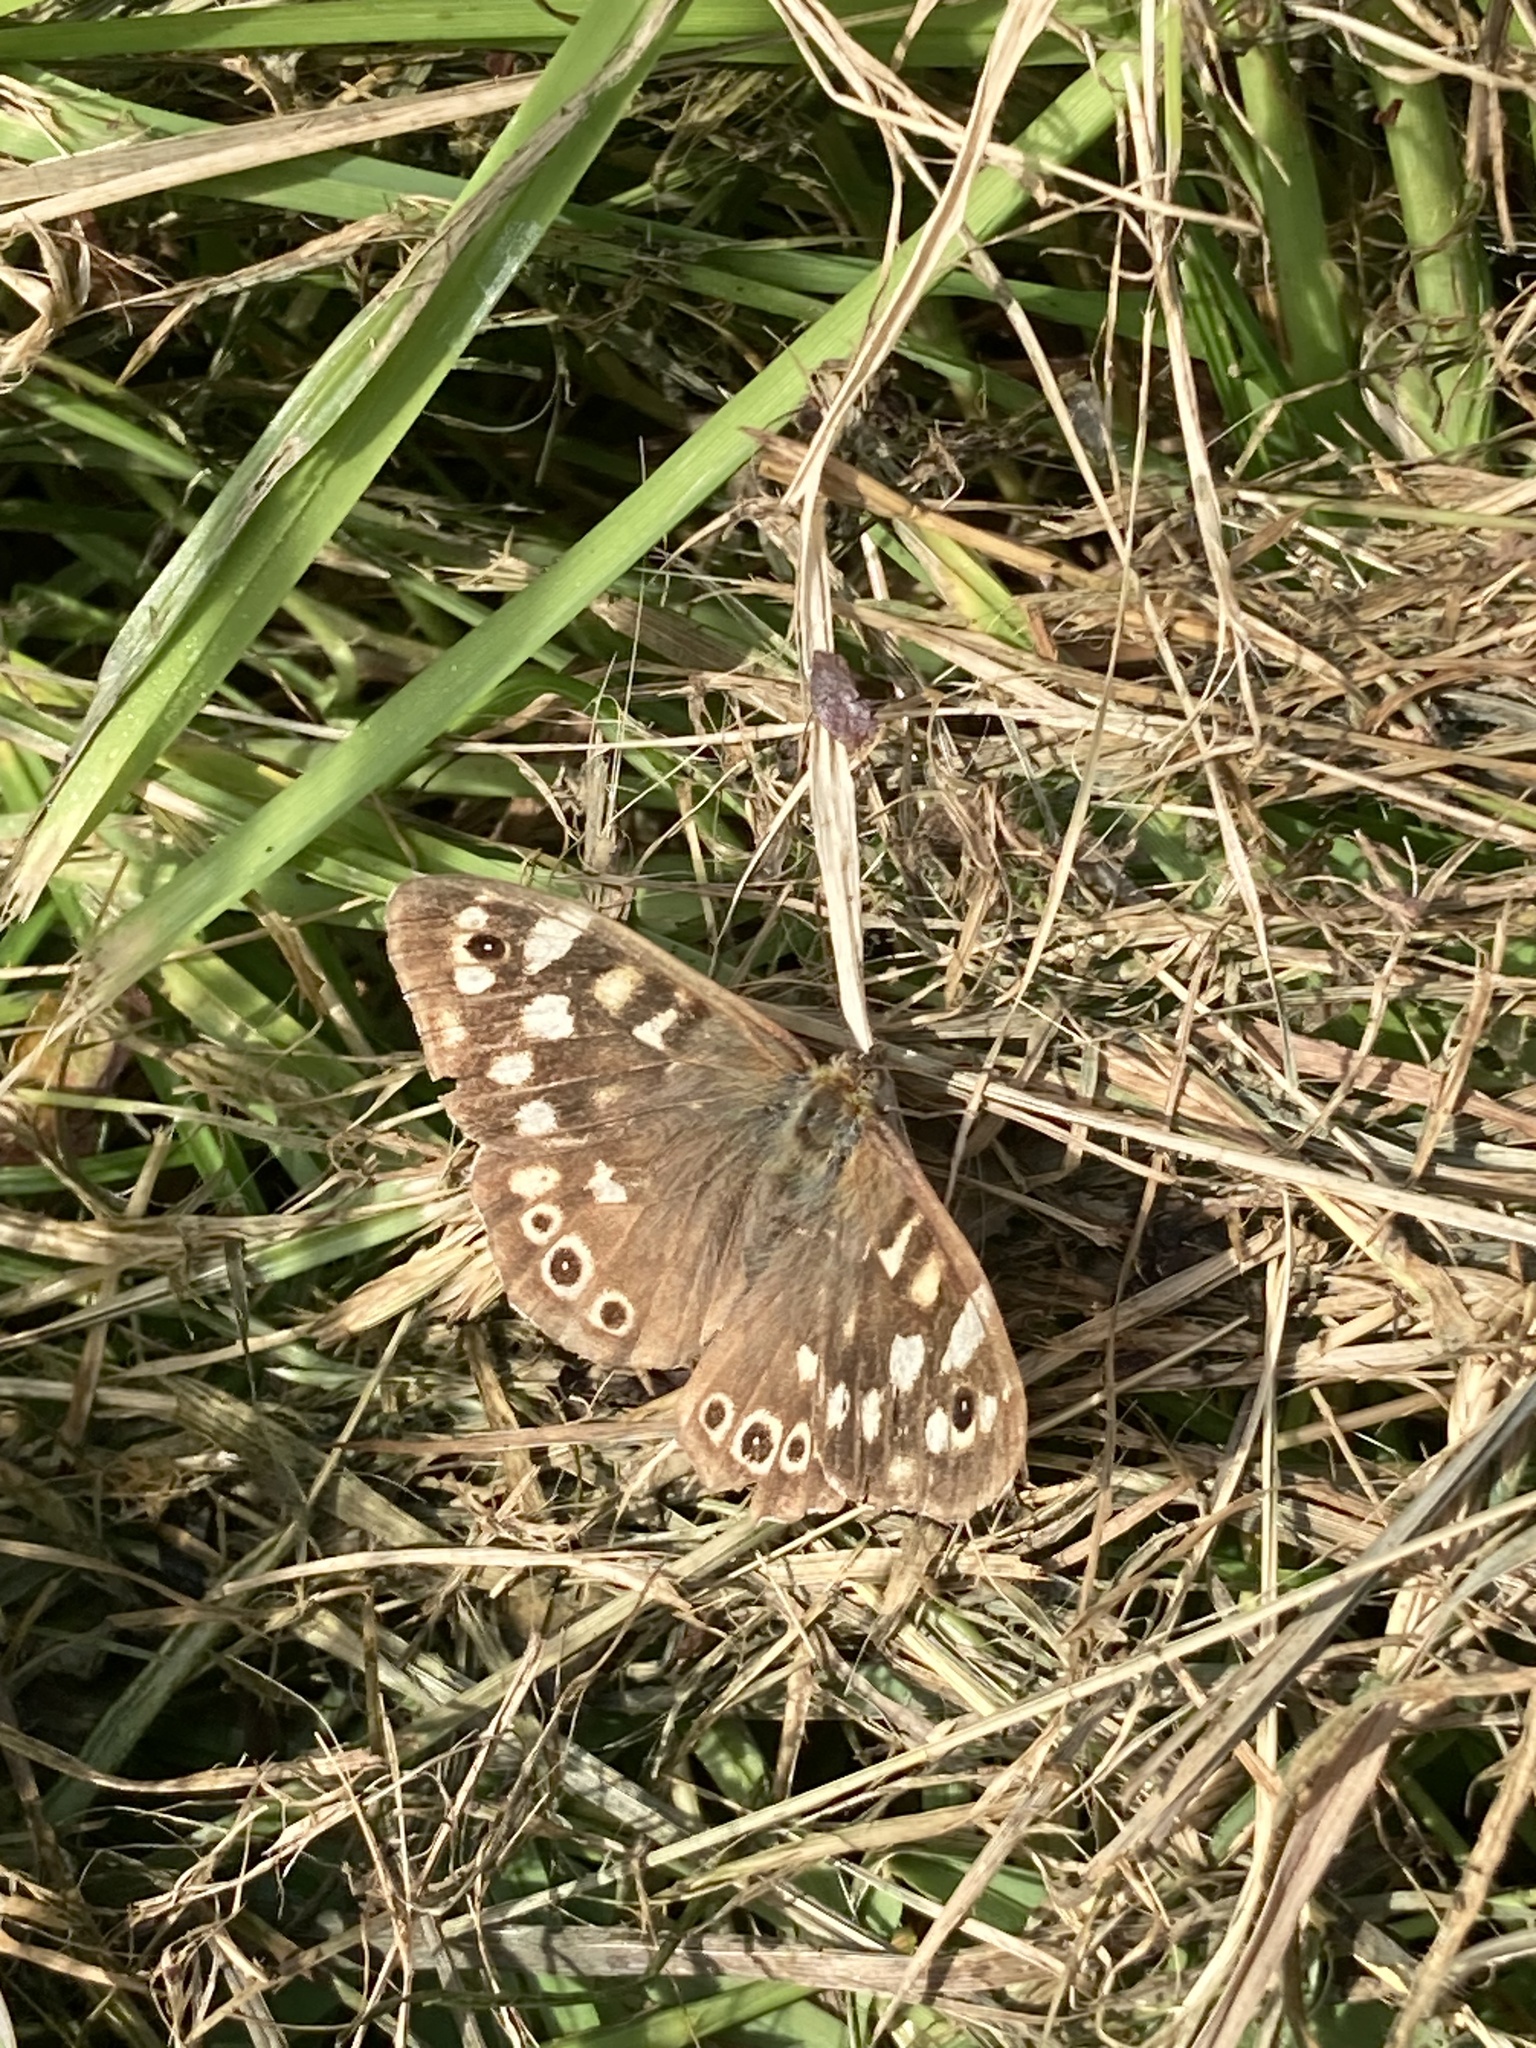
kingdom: Animalia
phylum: Arthropoda
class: Insecta
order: Lepidoptera
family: Nymphalidae
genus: Pararge
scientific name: Pararge aegeria
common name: Speckled wood
